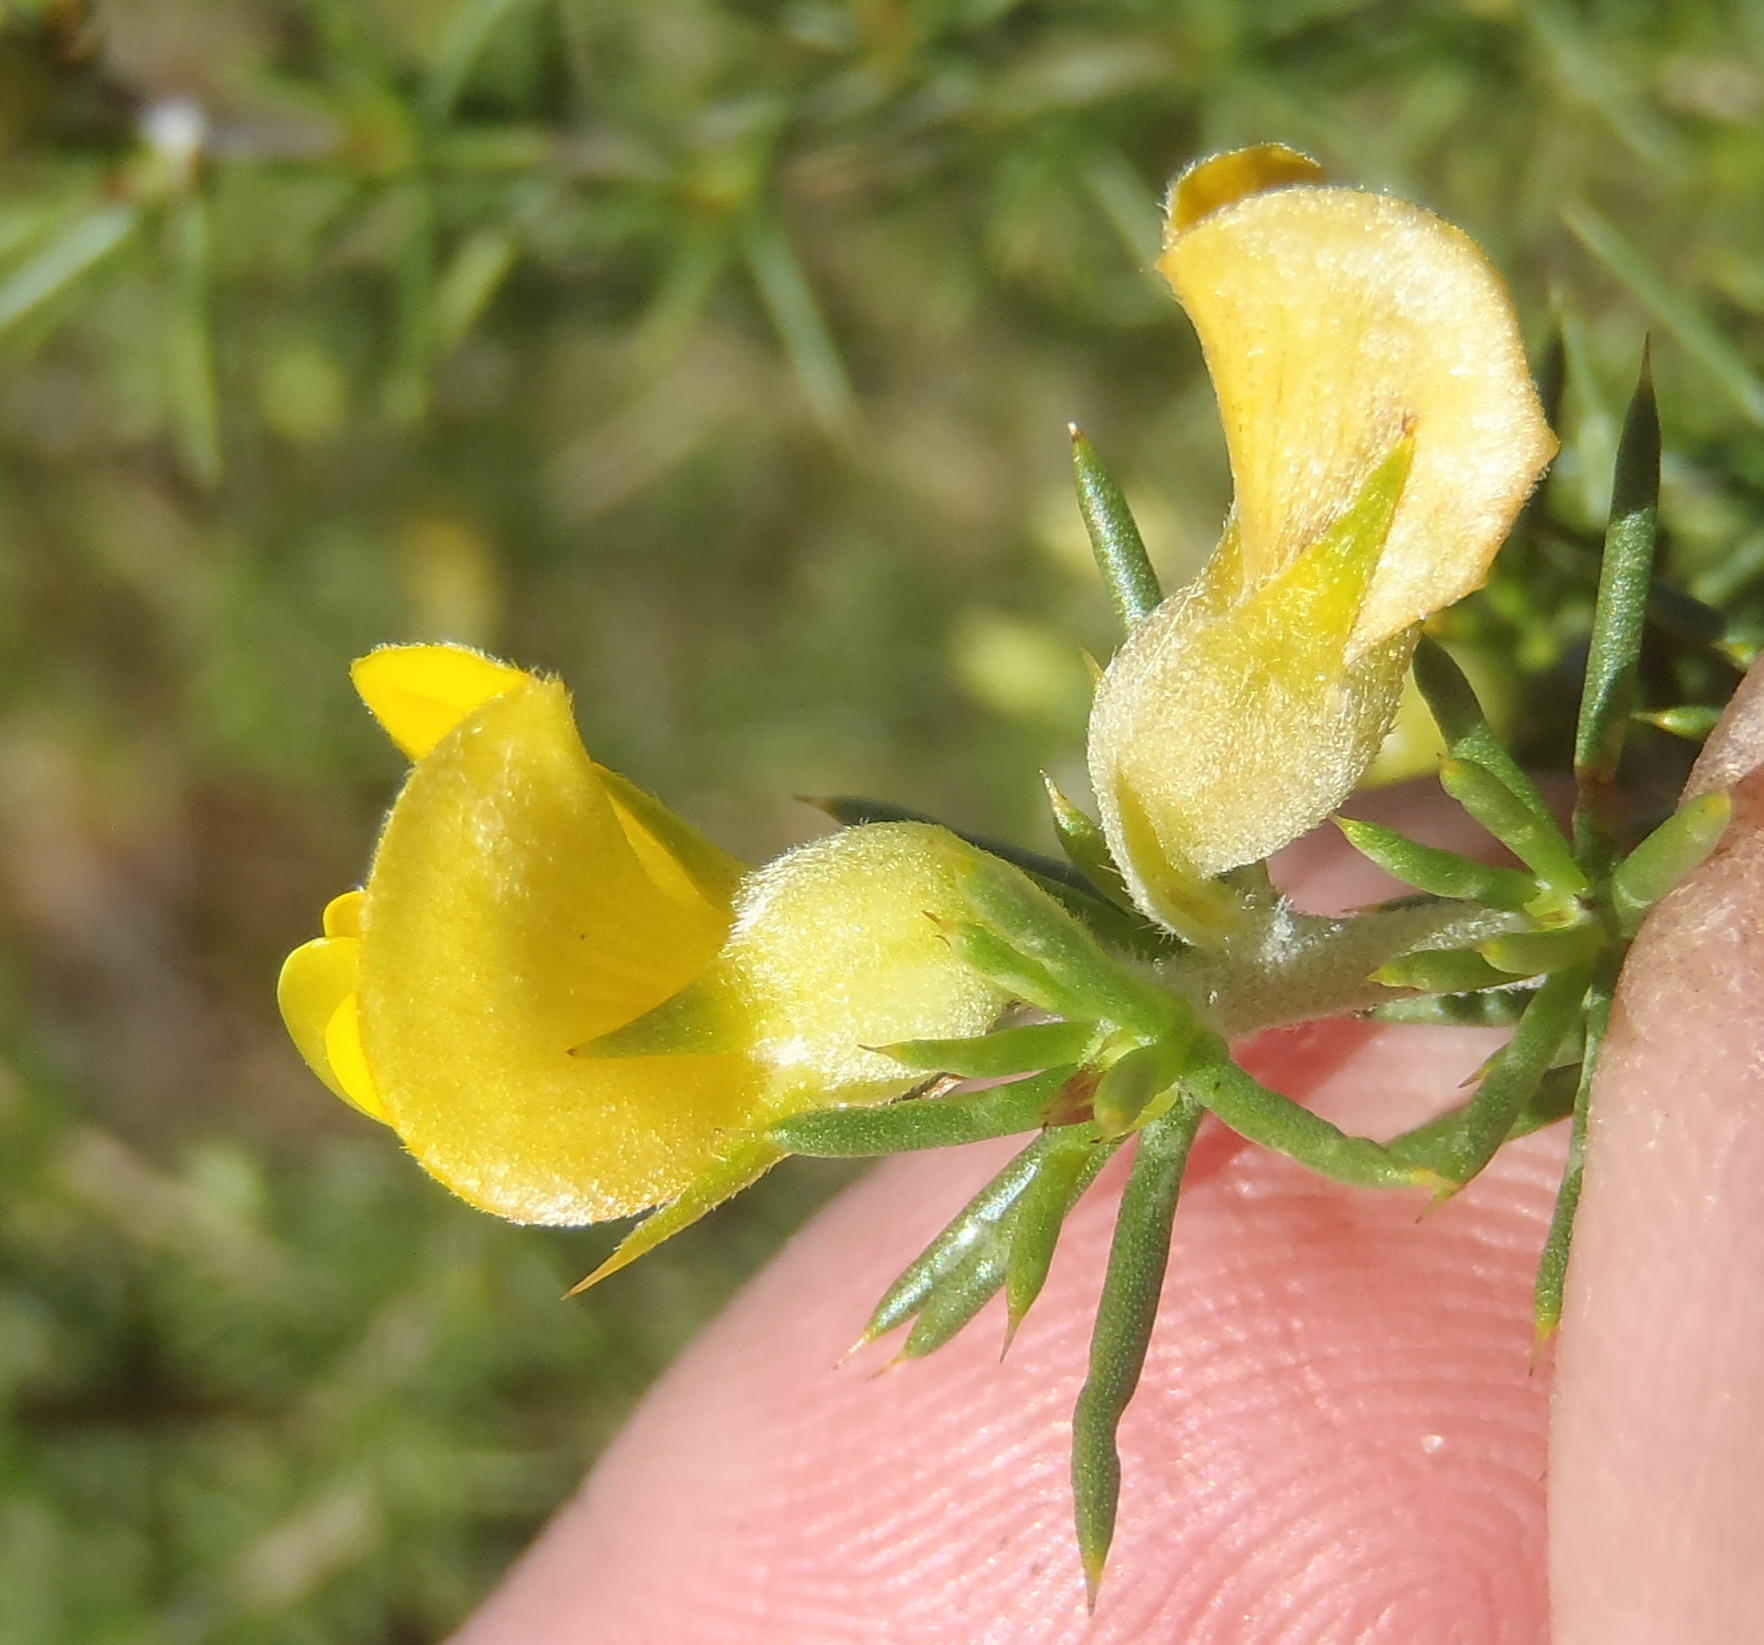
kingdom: Plantae
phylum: Tracheophyta
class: Magnoliopsida
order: Fabales
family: Fabaceae
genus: Aspalathus
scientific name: Aspalathus hirta
